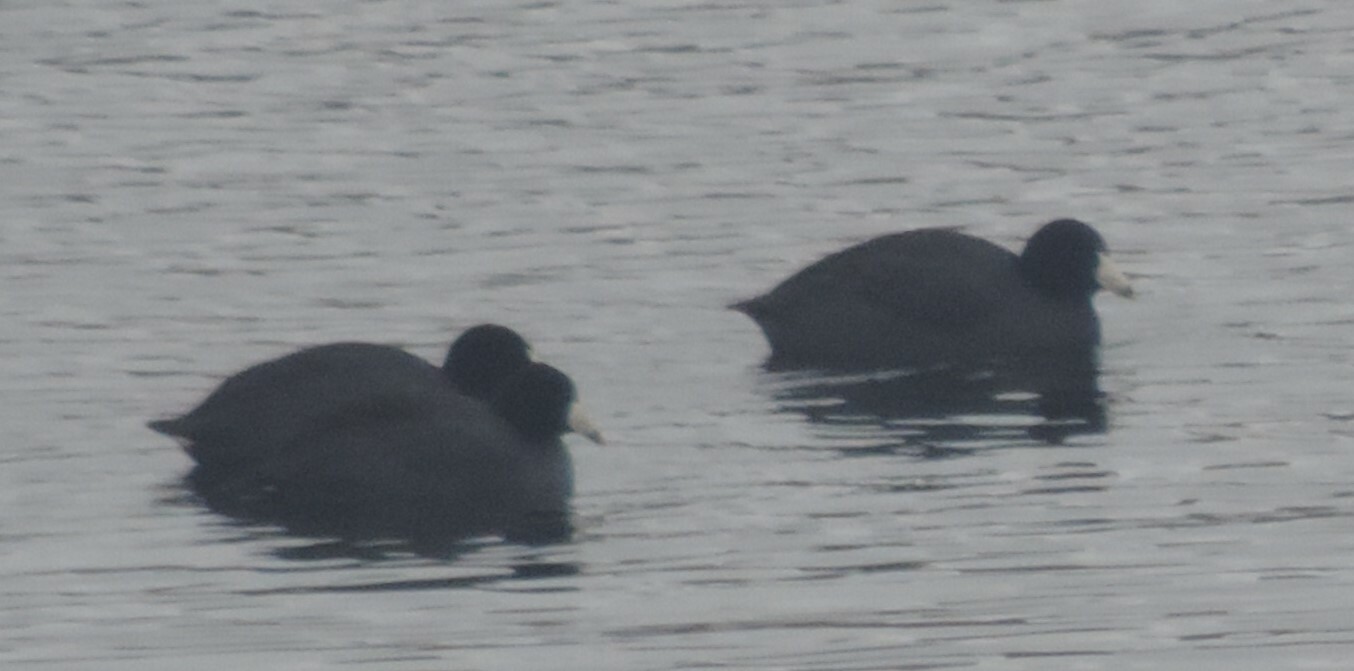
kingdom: Animalia
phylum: Chordata
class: Aves
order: Gruiformes
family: Rallidae
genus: Fulica
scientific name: Fulica americana
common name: American coot
